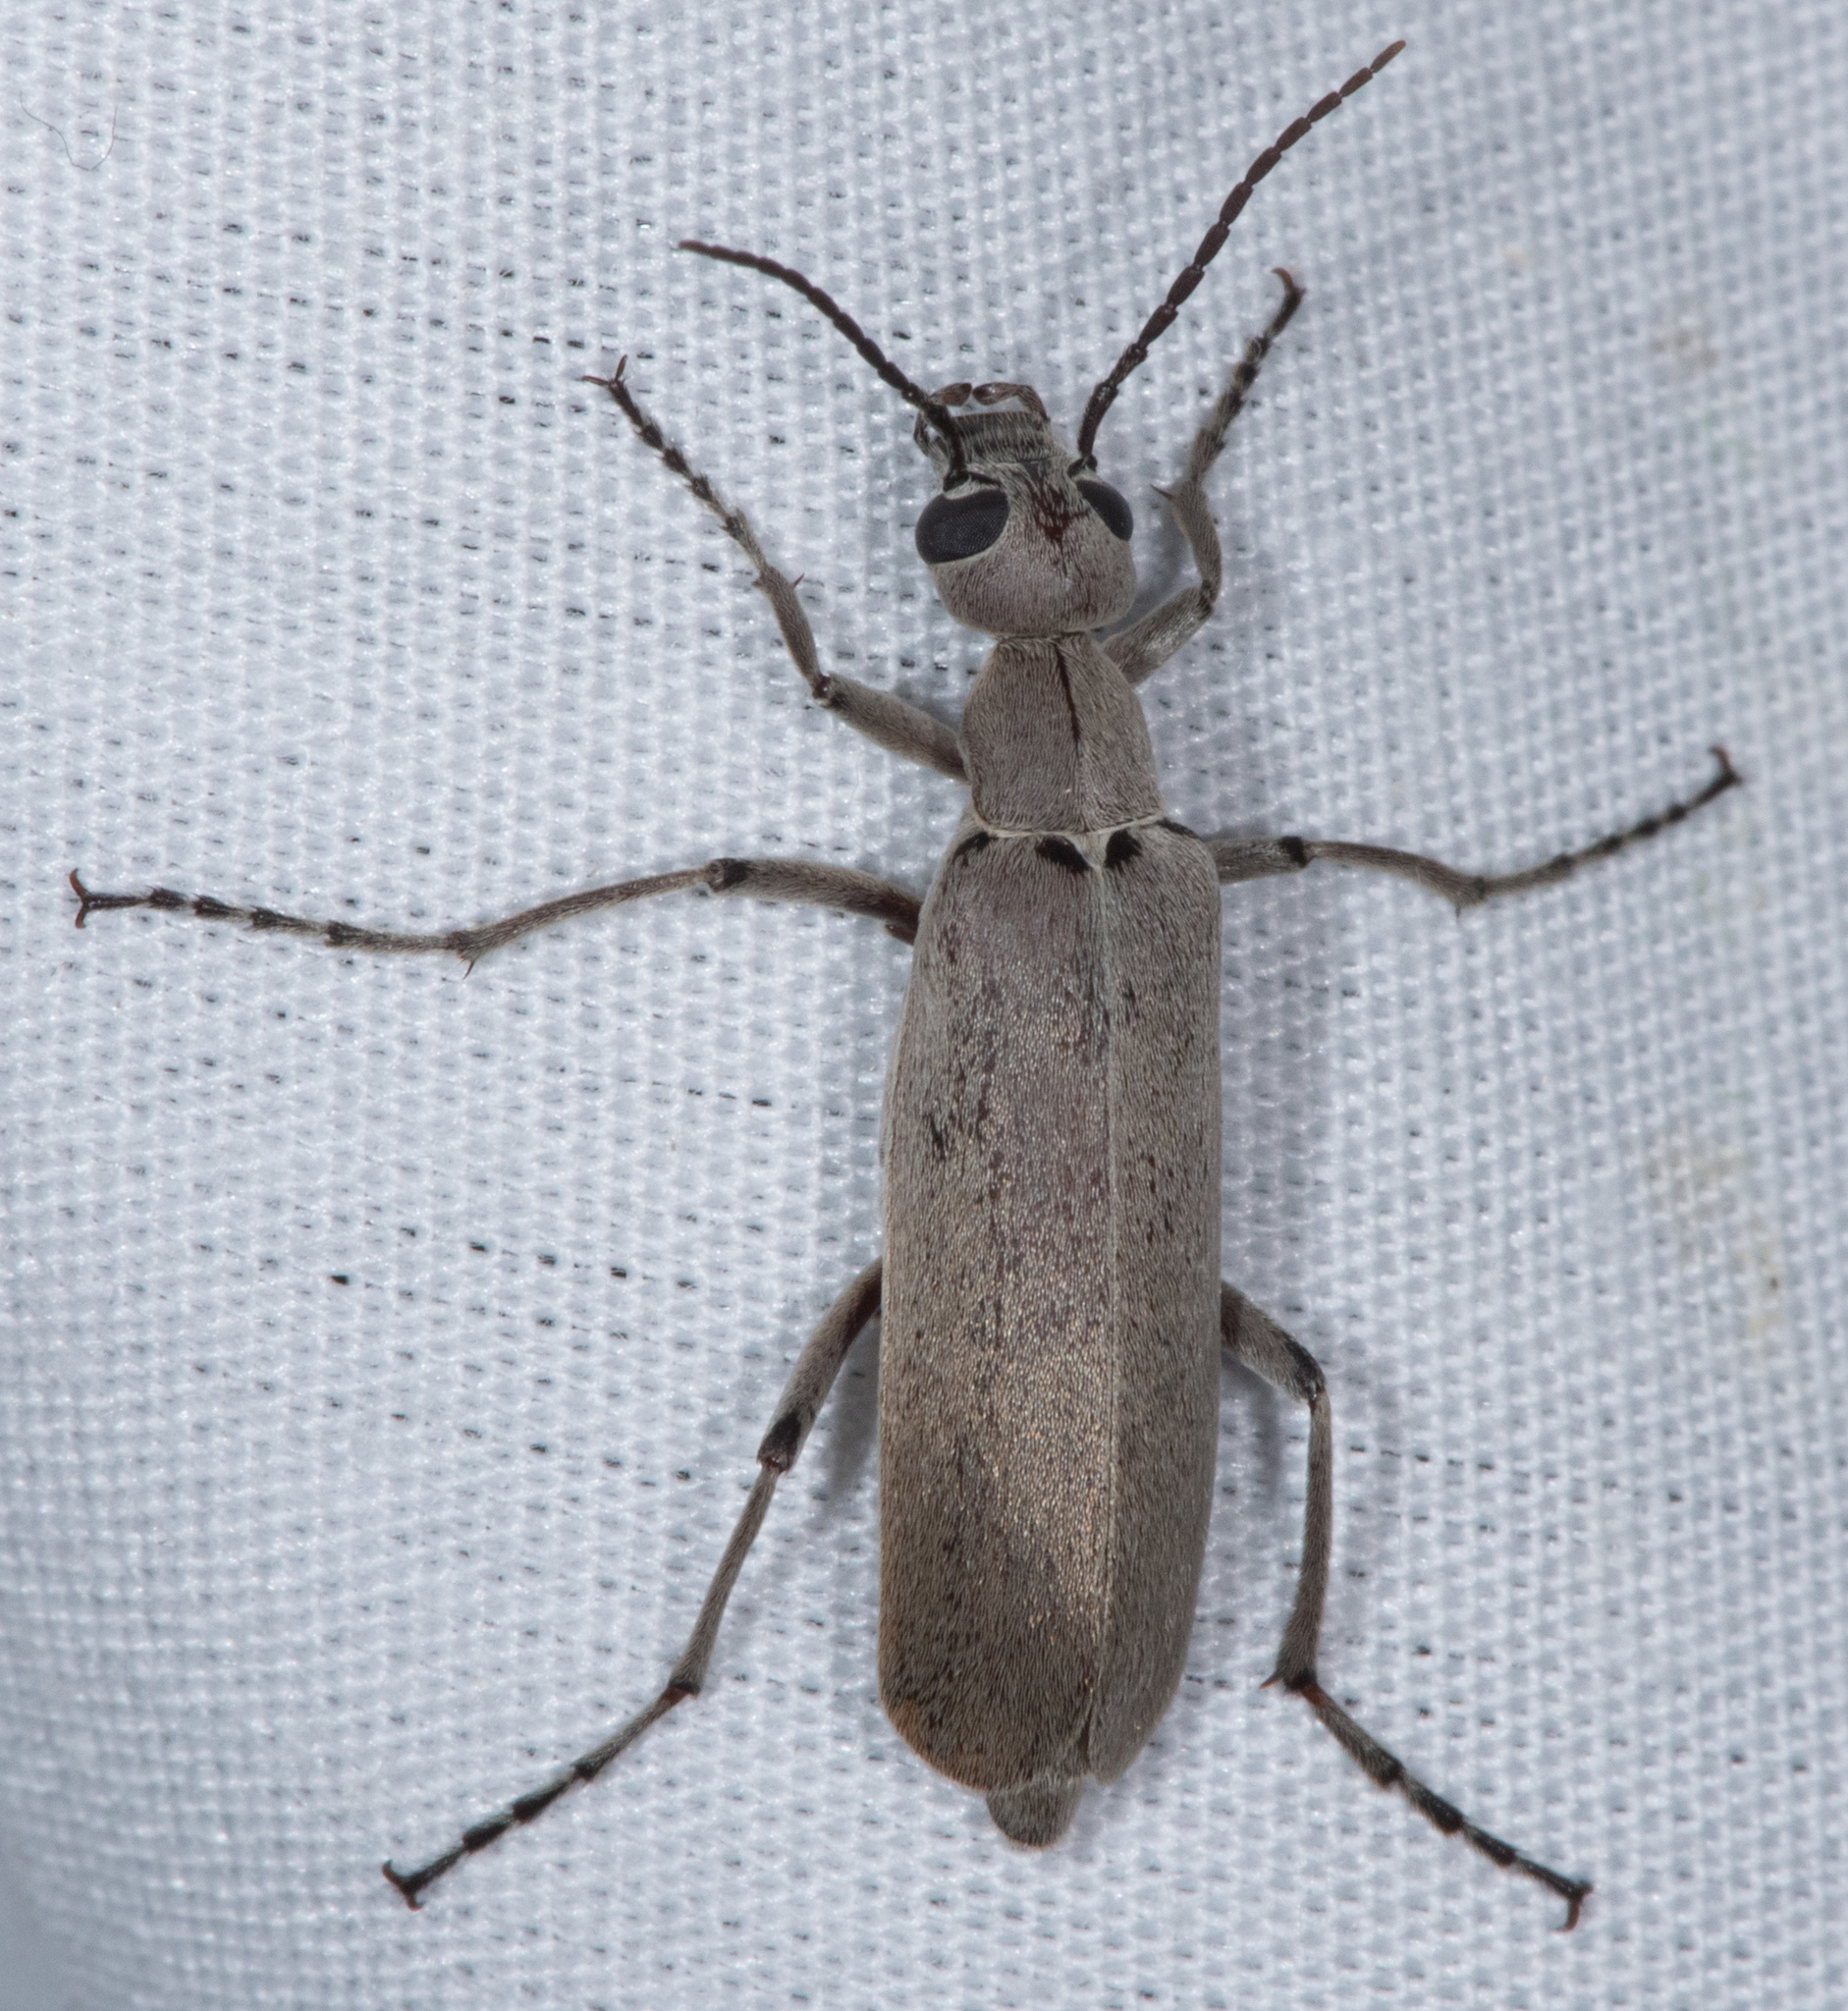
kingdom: Animalia
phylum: Arthropoda
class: Insecta
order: Coleoptera
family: Meloidae
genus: Epicauta
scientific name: Epicauta arizonica
